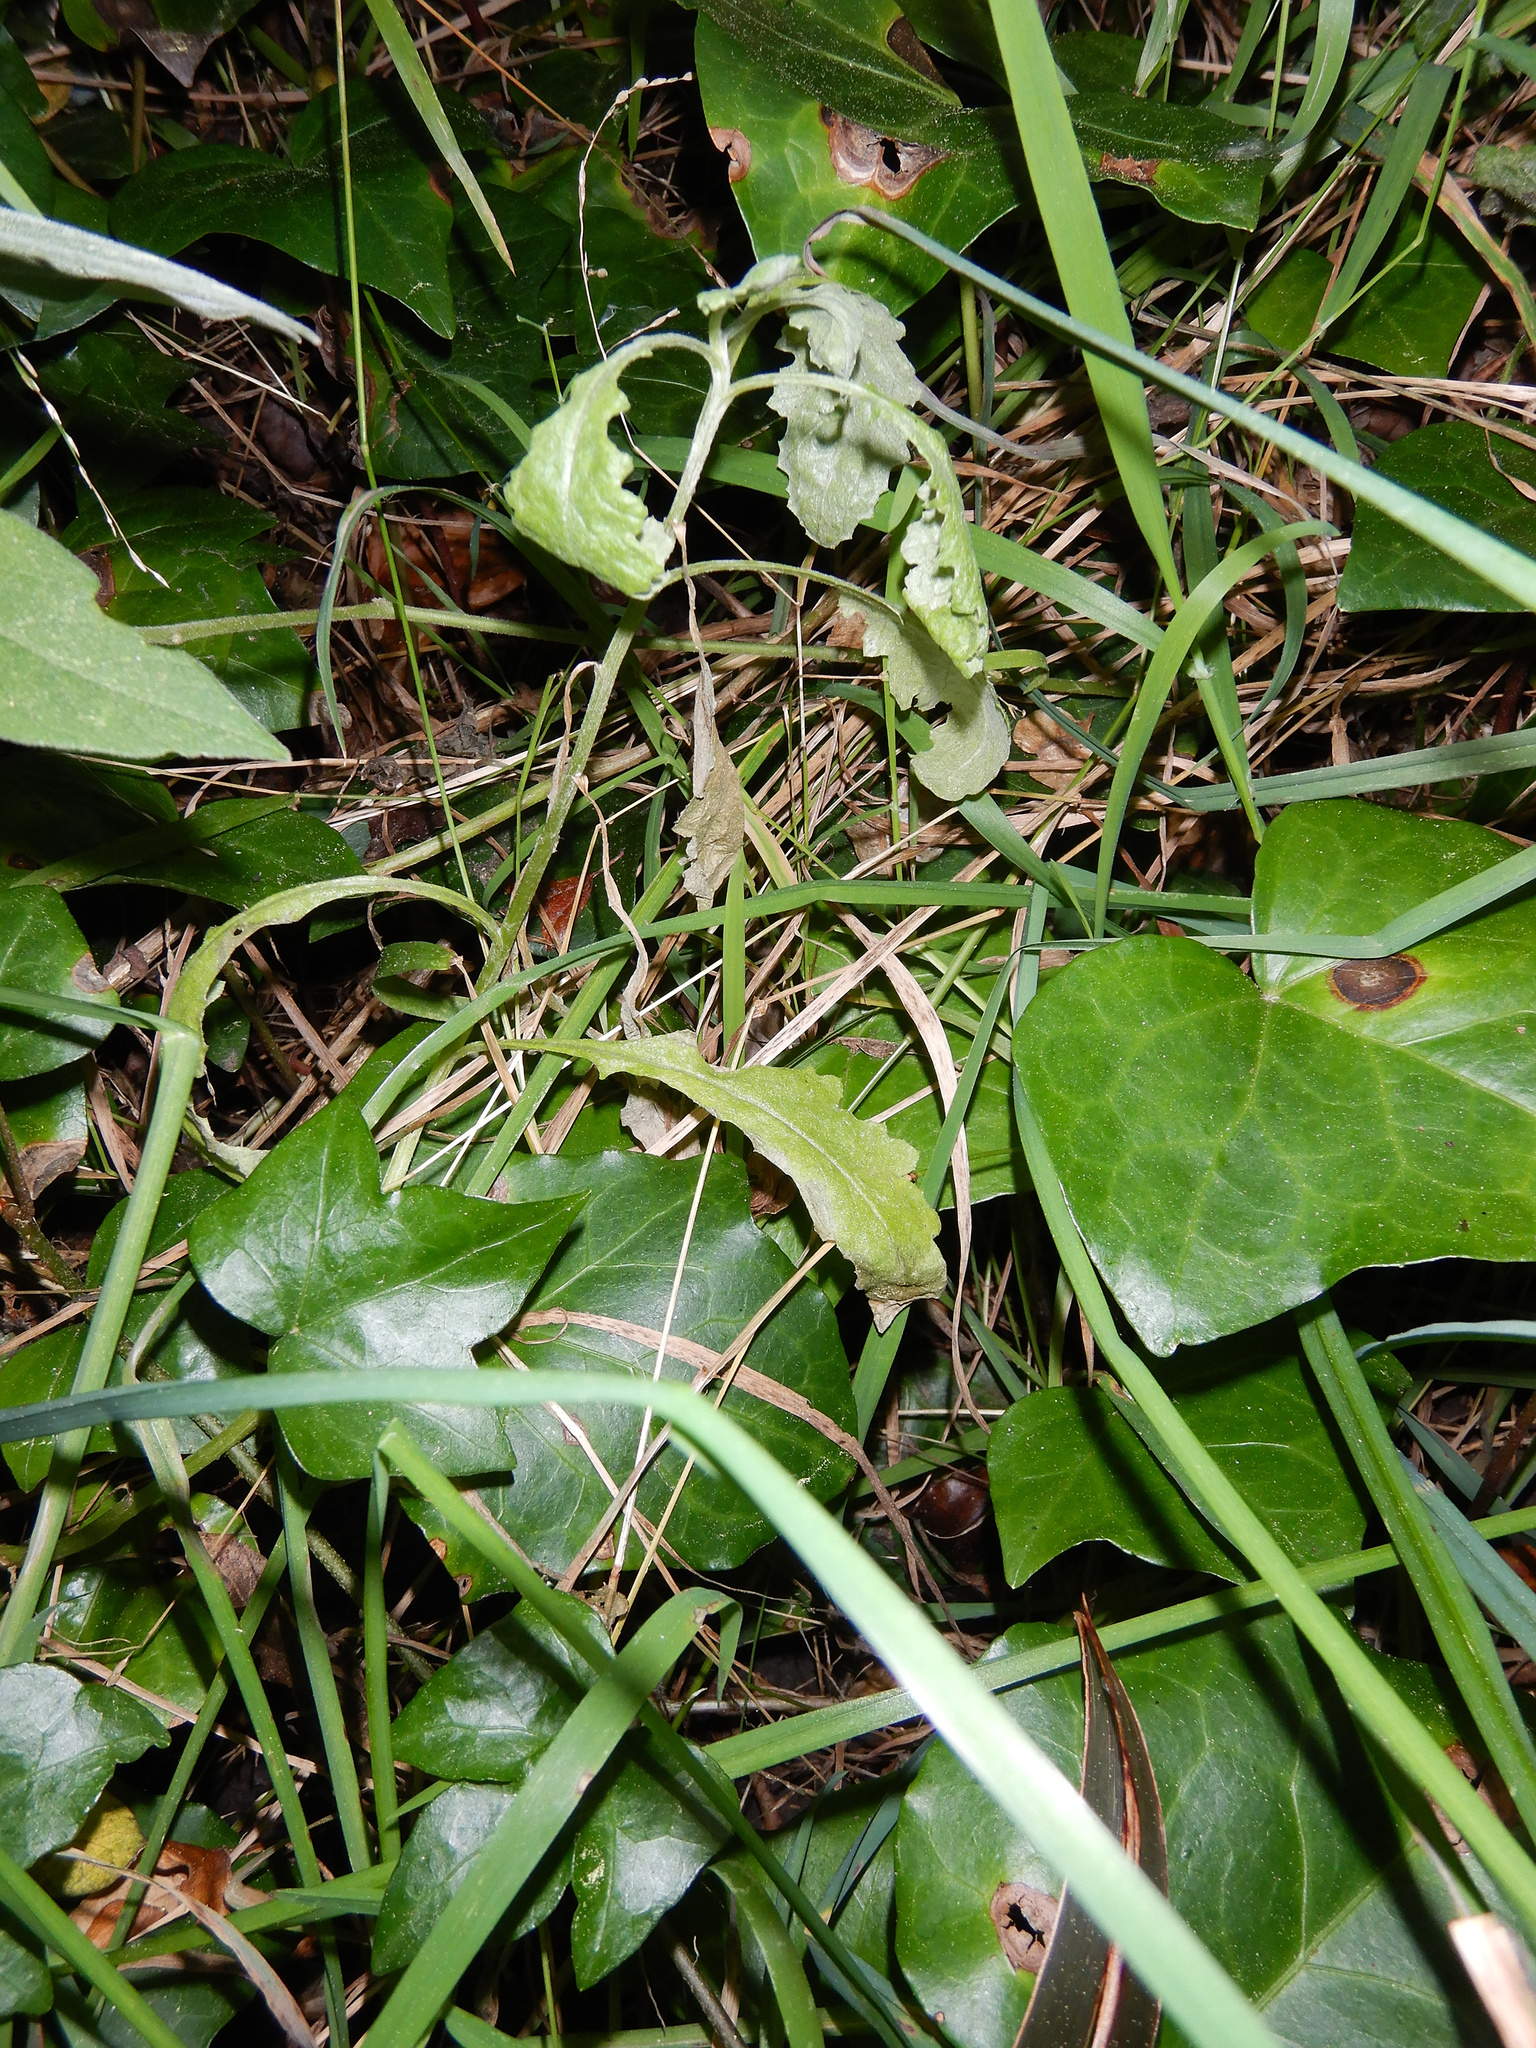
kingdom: Plantae
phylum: Tracheophyta
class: Magnoliopsida
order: Asterales
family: Asteraceae
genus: Senecio
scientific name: Senecio glomeratus
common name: Cutleaf burnweed
